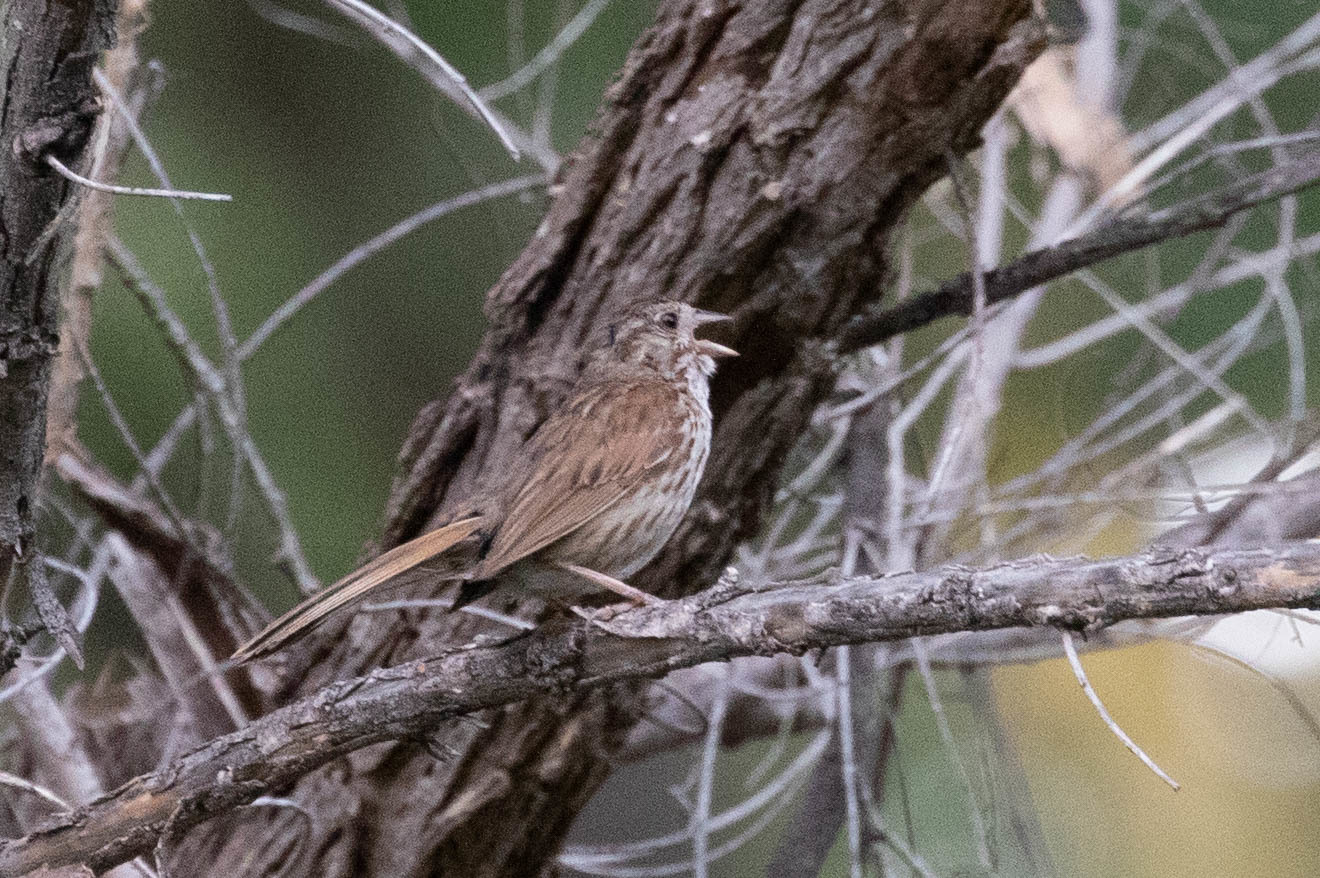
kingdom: Animalia
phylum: Chordata
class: Aves
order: Passeriformes
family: Passerellidae
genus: Melospiza
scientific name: Melospiza melodia
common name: Song sparrow
